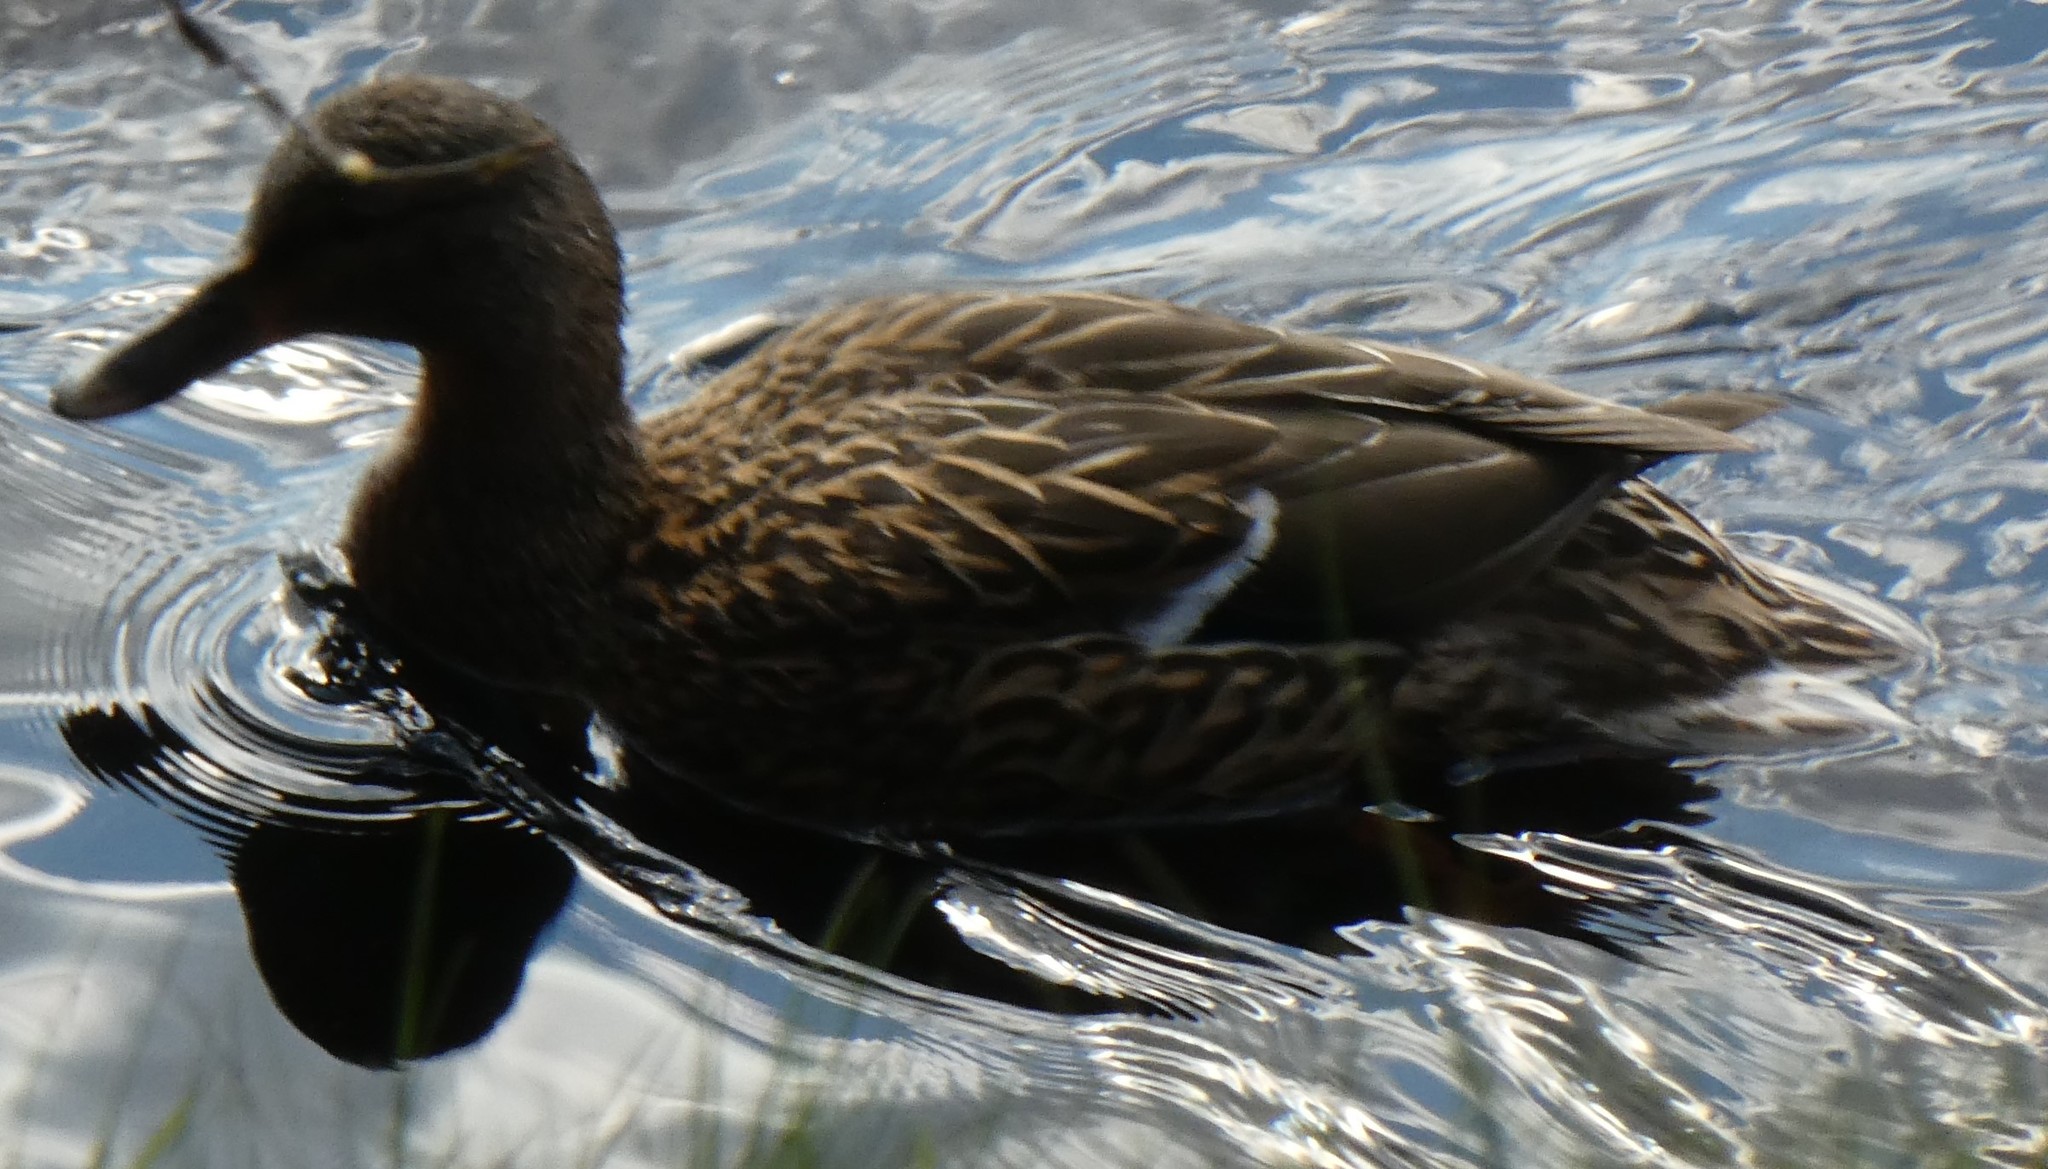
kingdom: Animalia
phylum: Chordata
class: Aves
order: Anseriformes
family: Anatidae
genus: Anas
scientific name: Anas platyrhynchos
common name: Mallard
